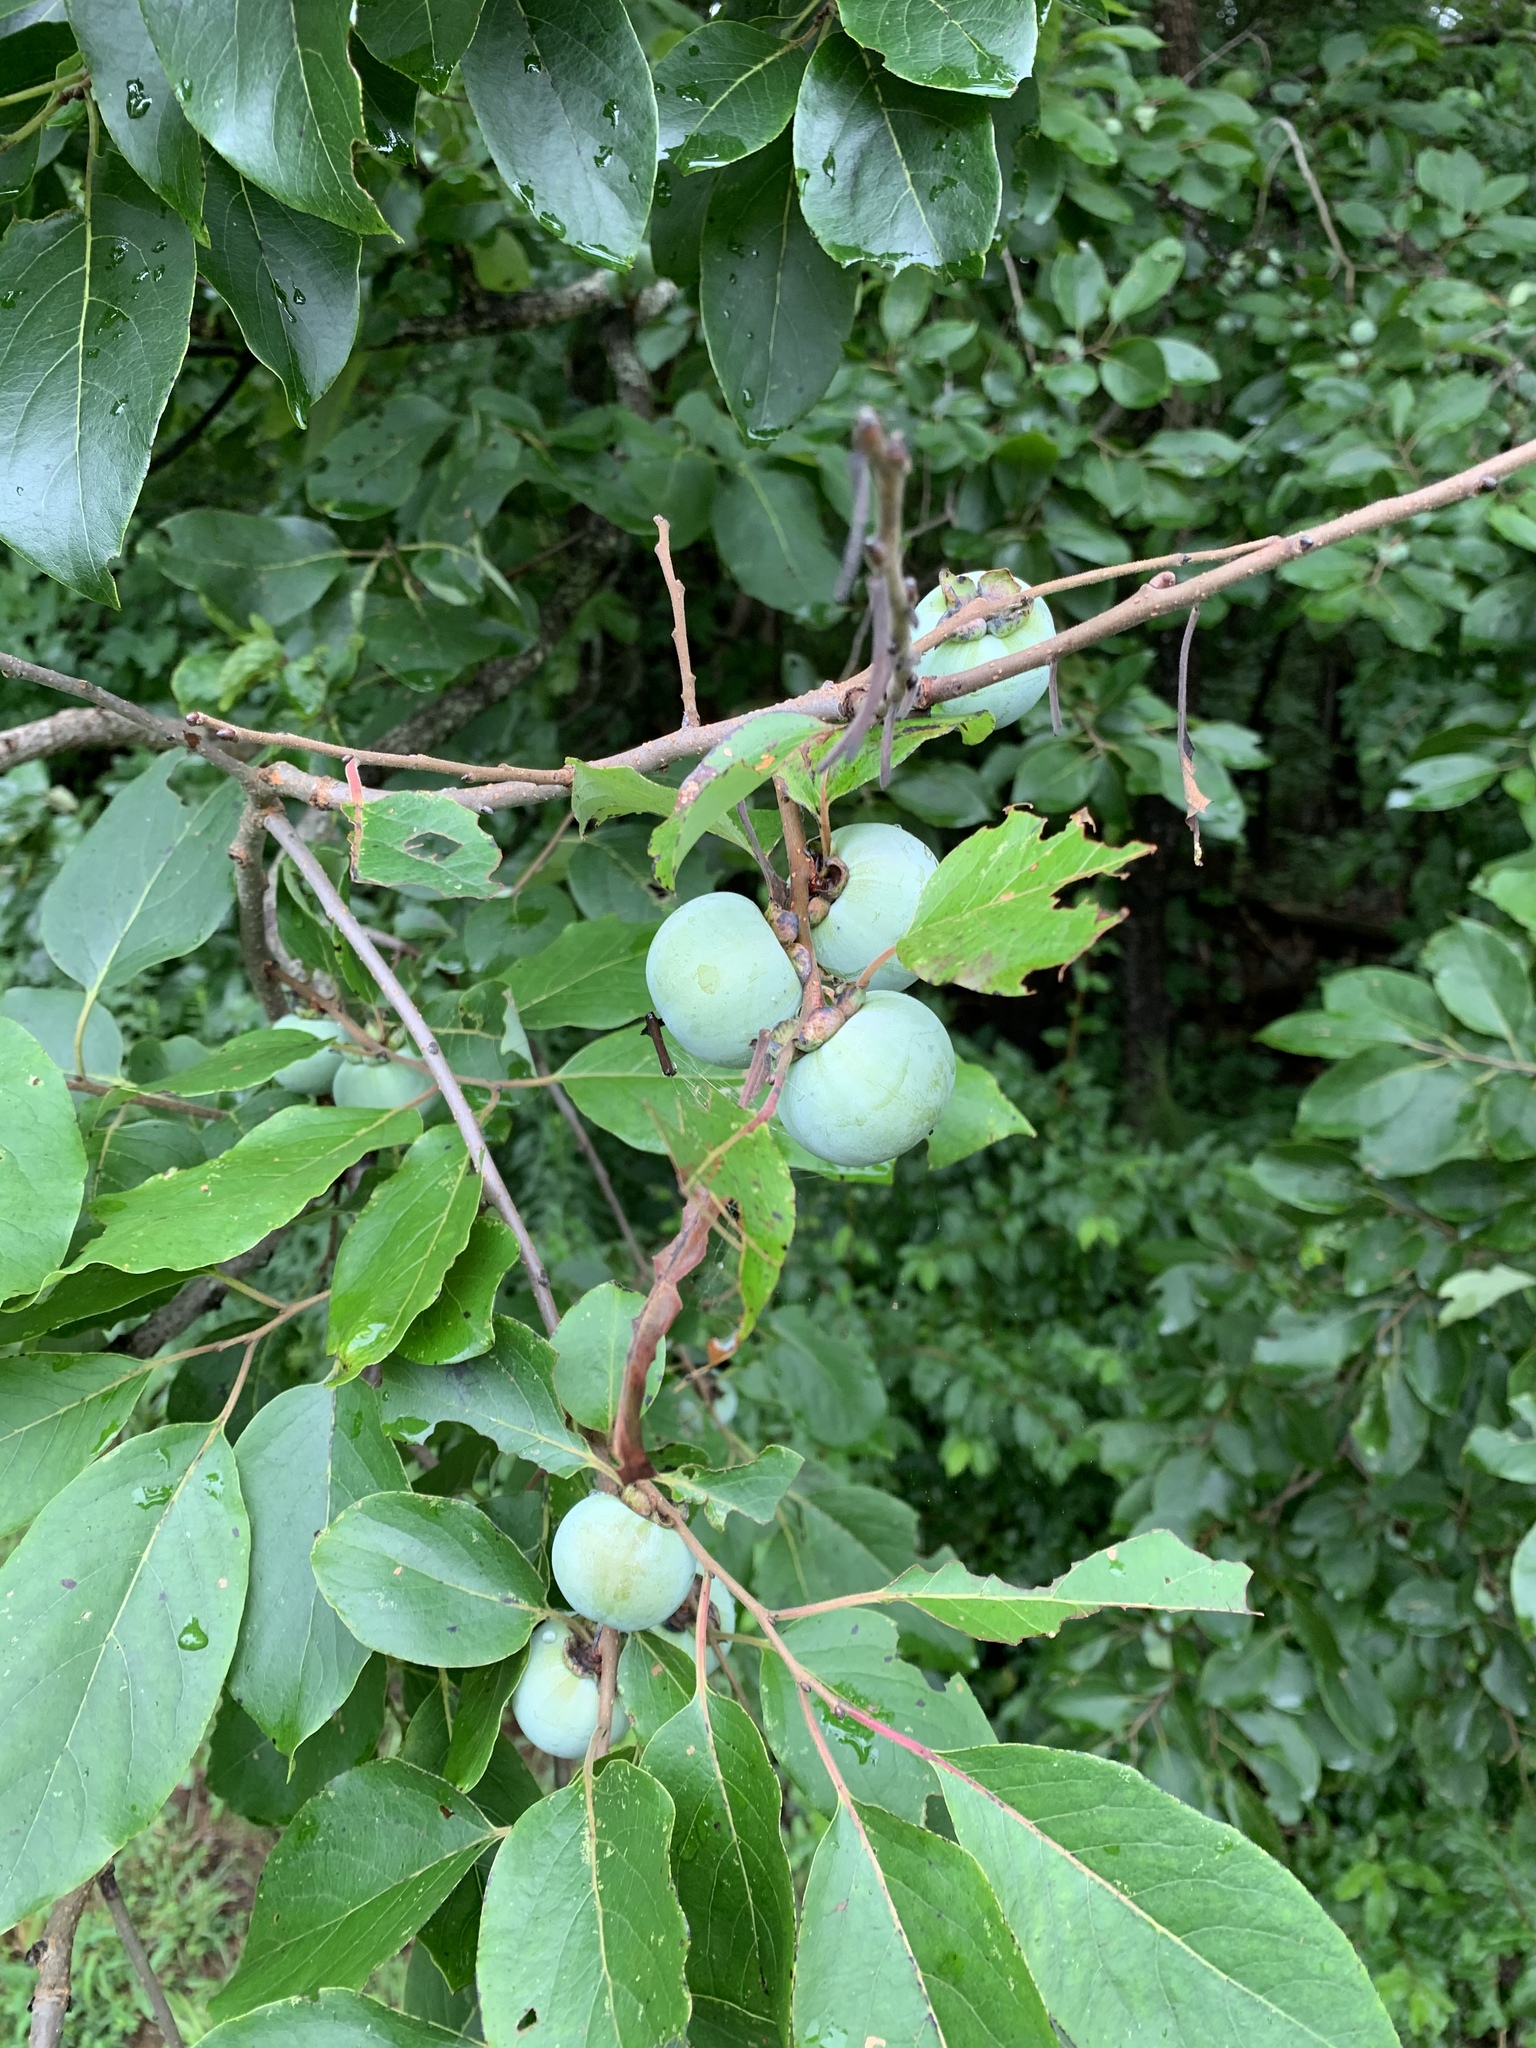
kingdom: Plantae
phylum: Tracheophyta
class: Magnoliopsida
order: Ericales
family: Ebenaceae
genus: Diospyros
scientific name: Diospyros virginiana
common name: Persimmon
